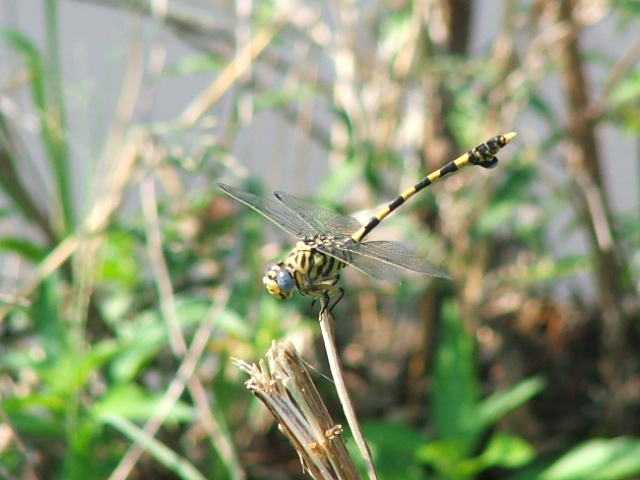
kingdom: Animalia
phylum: Arthropoda
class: Insecta
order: Odonata
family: Gomphidae
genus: Ictinogomphus
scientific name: Ictinogomphus ferox
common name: Common tiger
